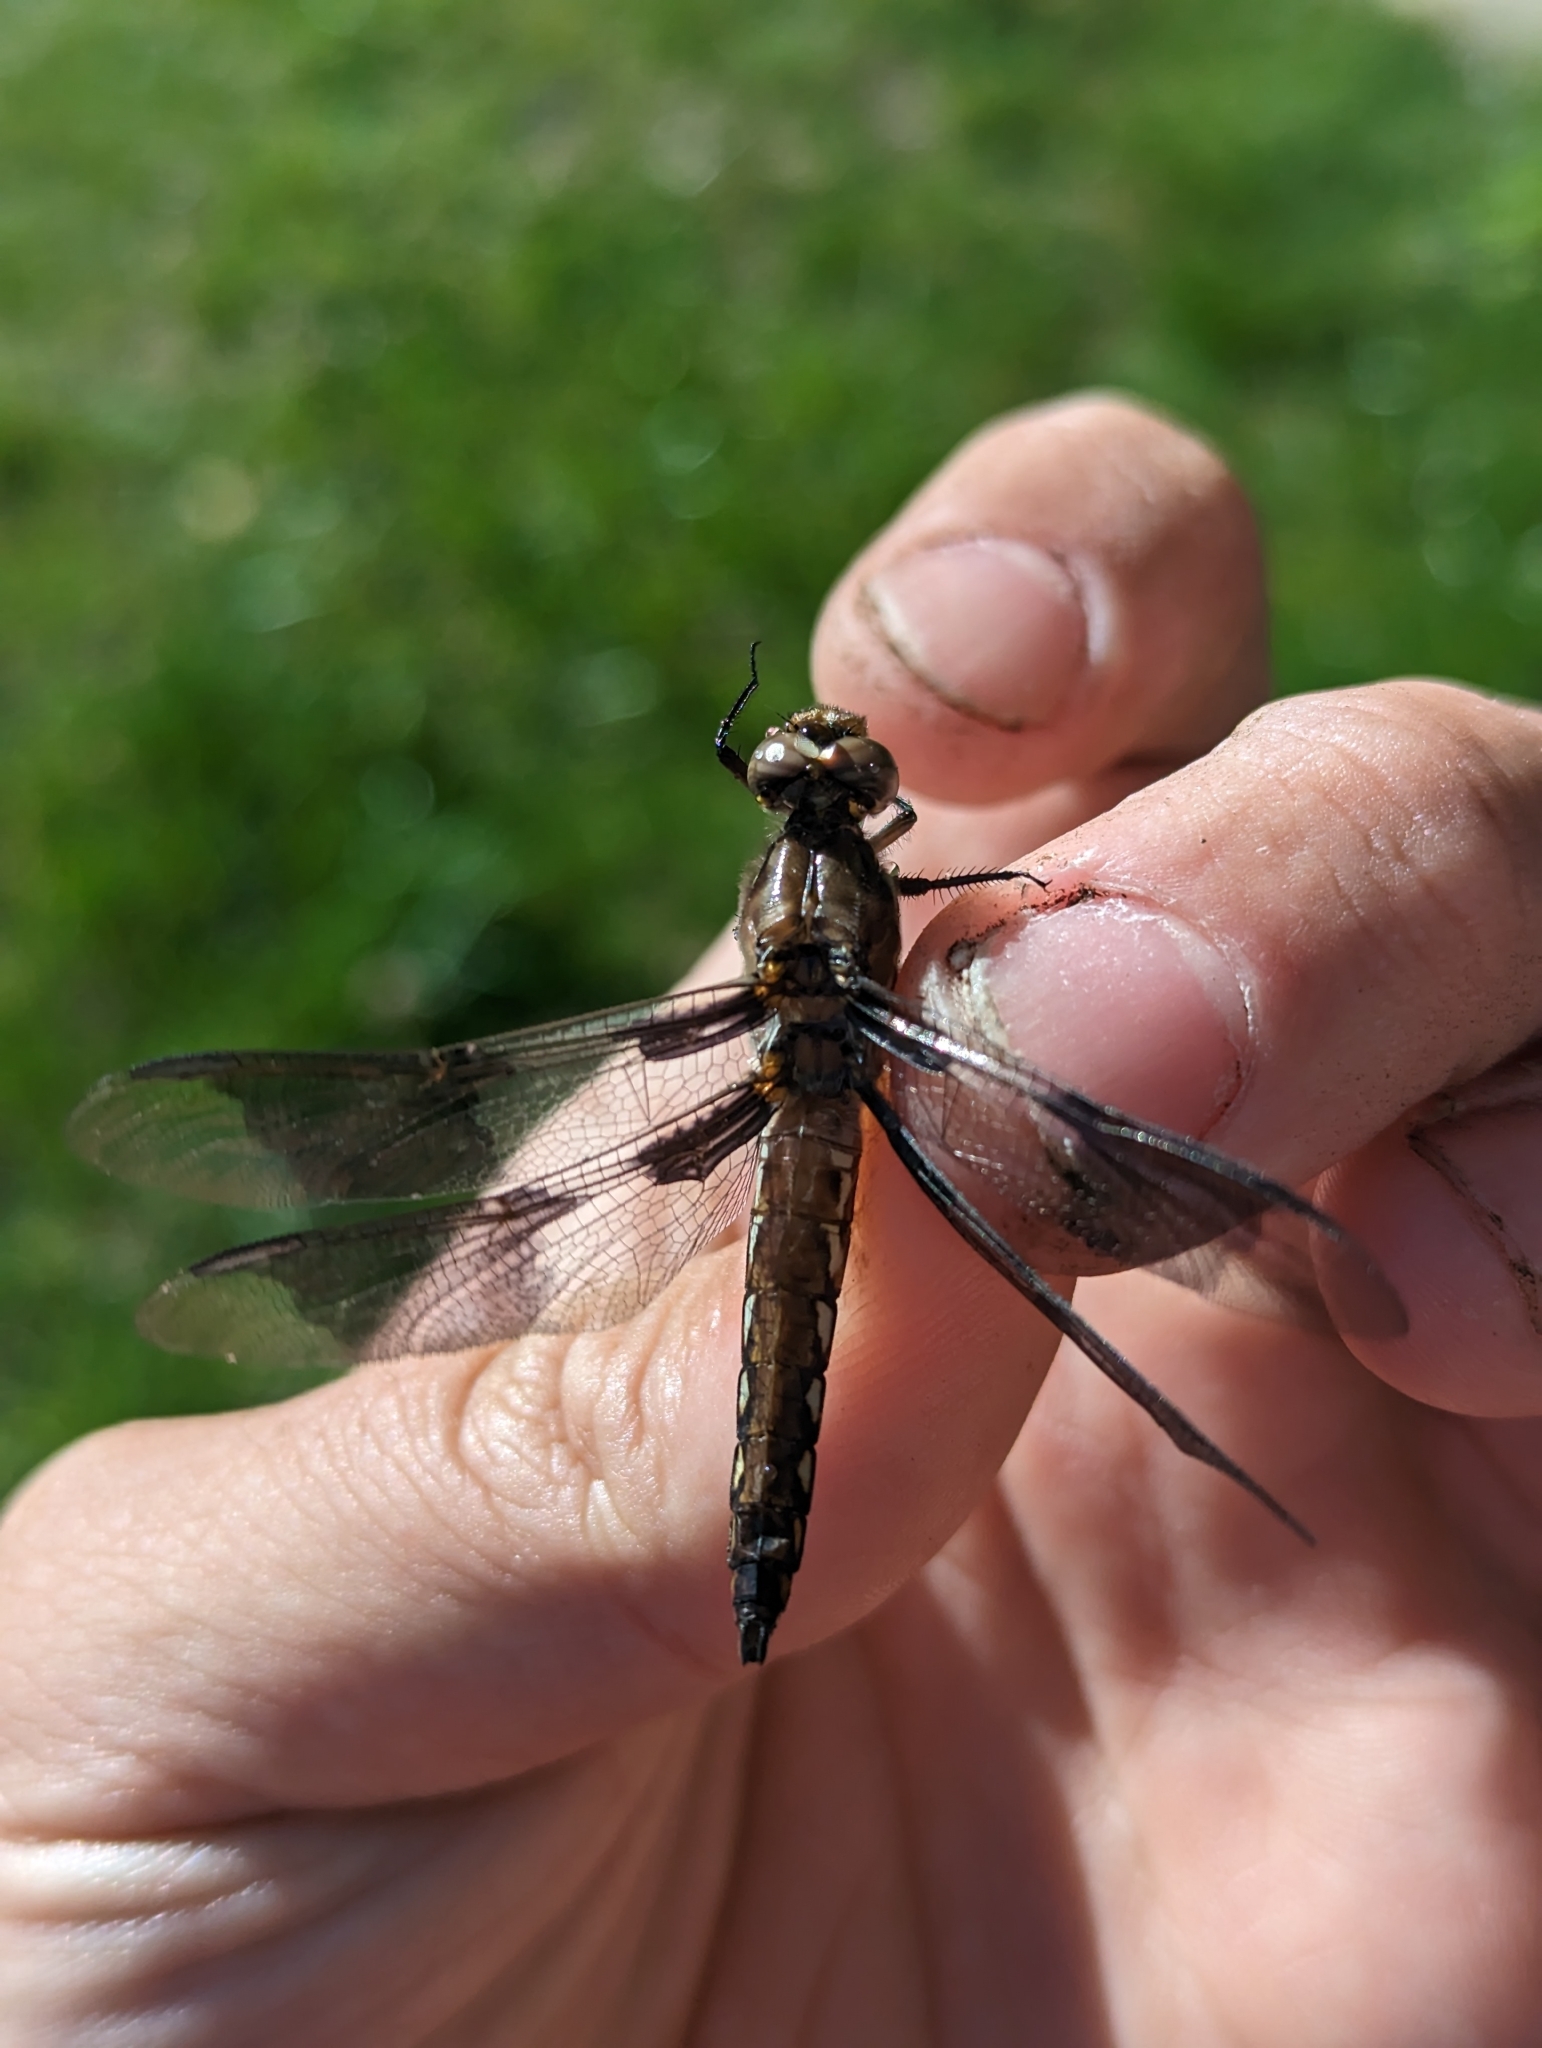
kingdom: Animalia
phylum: Arthropoda
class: Insecta
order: Odonata
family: Libellulidae
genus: Plathemis
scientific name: Plathemis lydia
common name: Common whitetail
